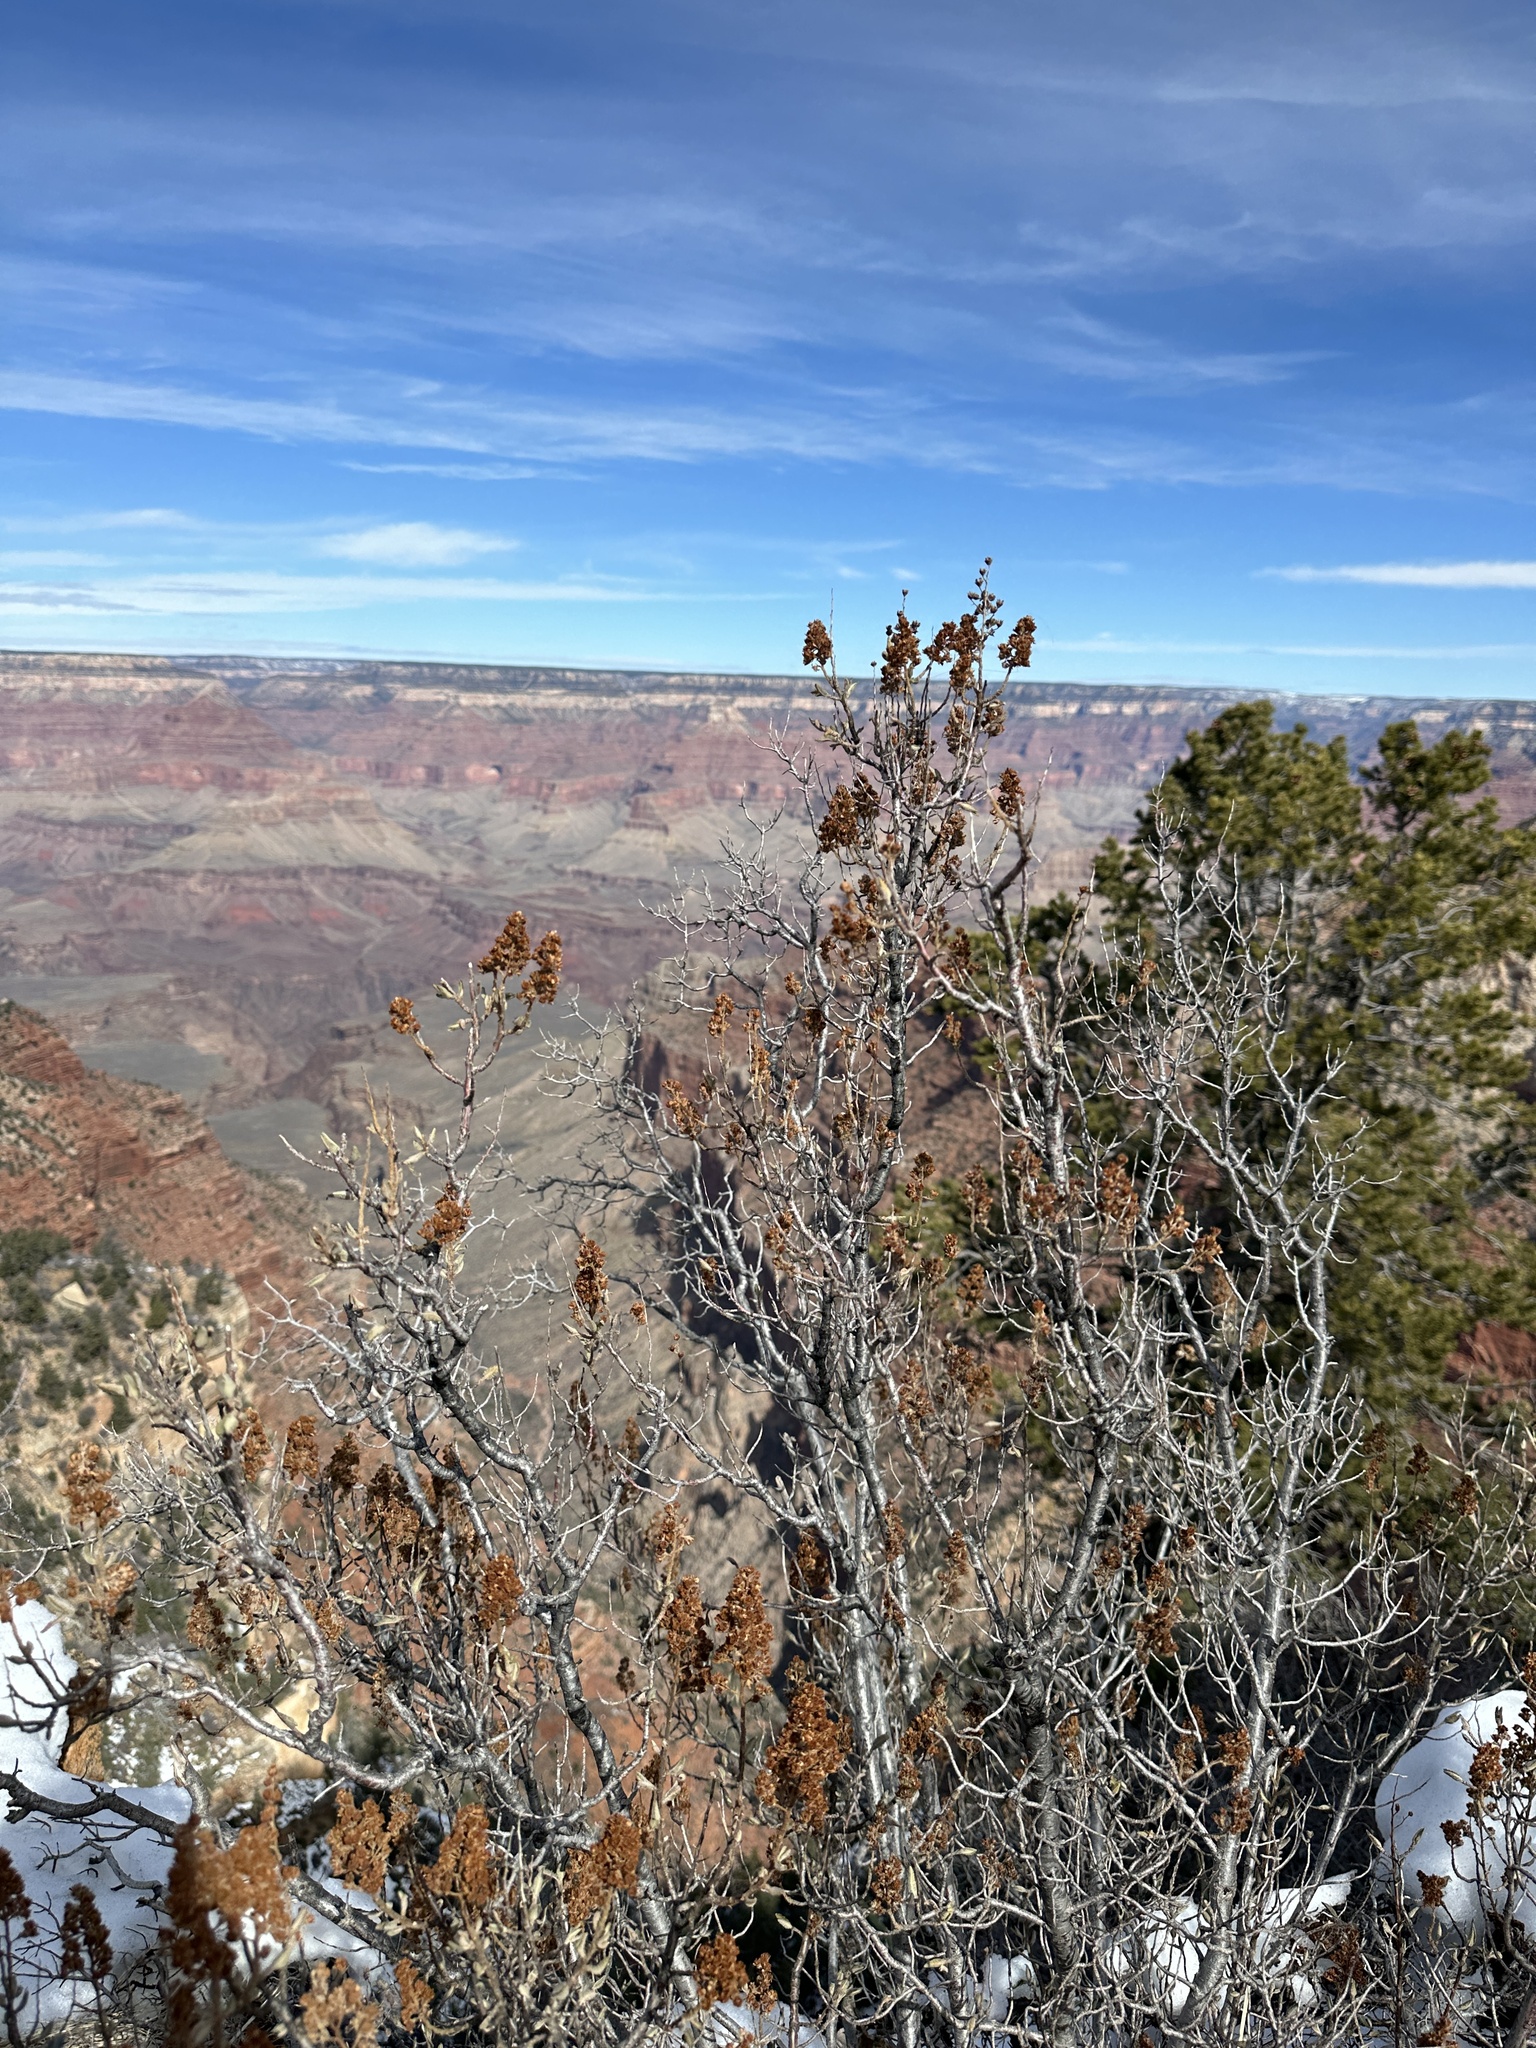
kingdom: Plantae
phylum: Tracheophyta
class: Magnoliopsida
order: Rosales
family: Rosaceae
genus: Chamaebatiaria
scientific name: Chamaebatiaria millefolium
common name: Fernbush
